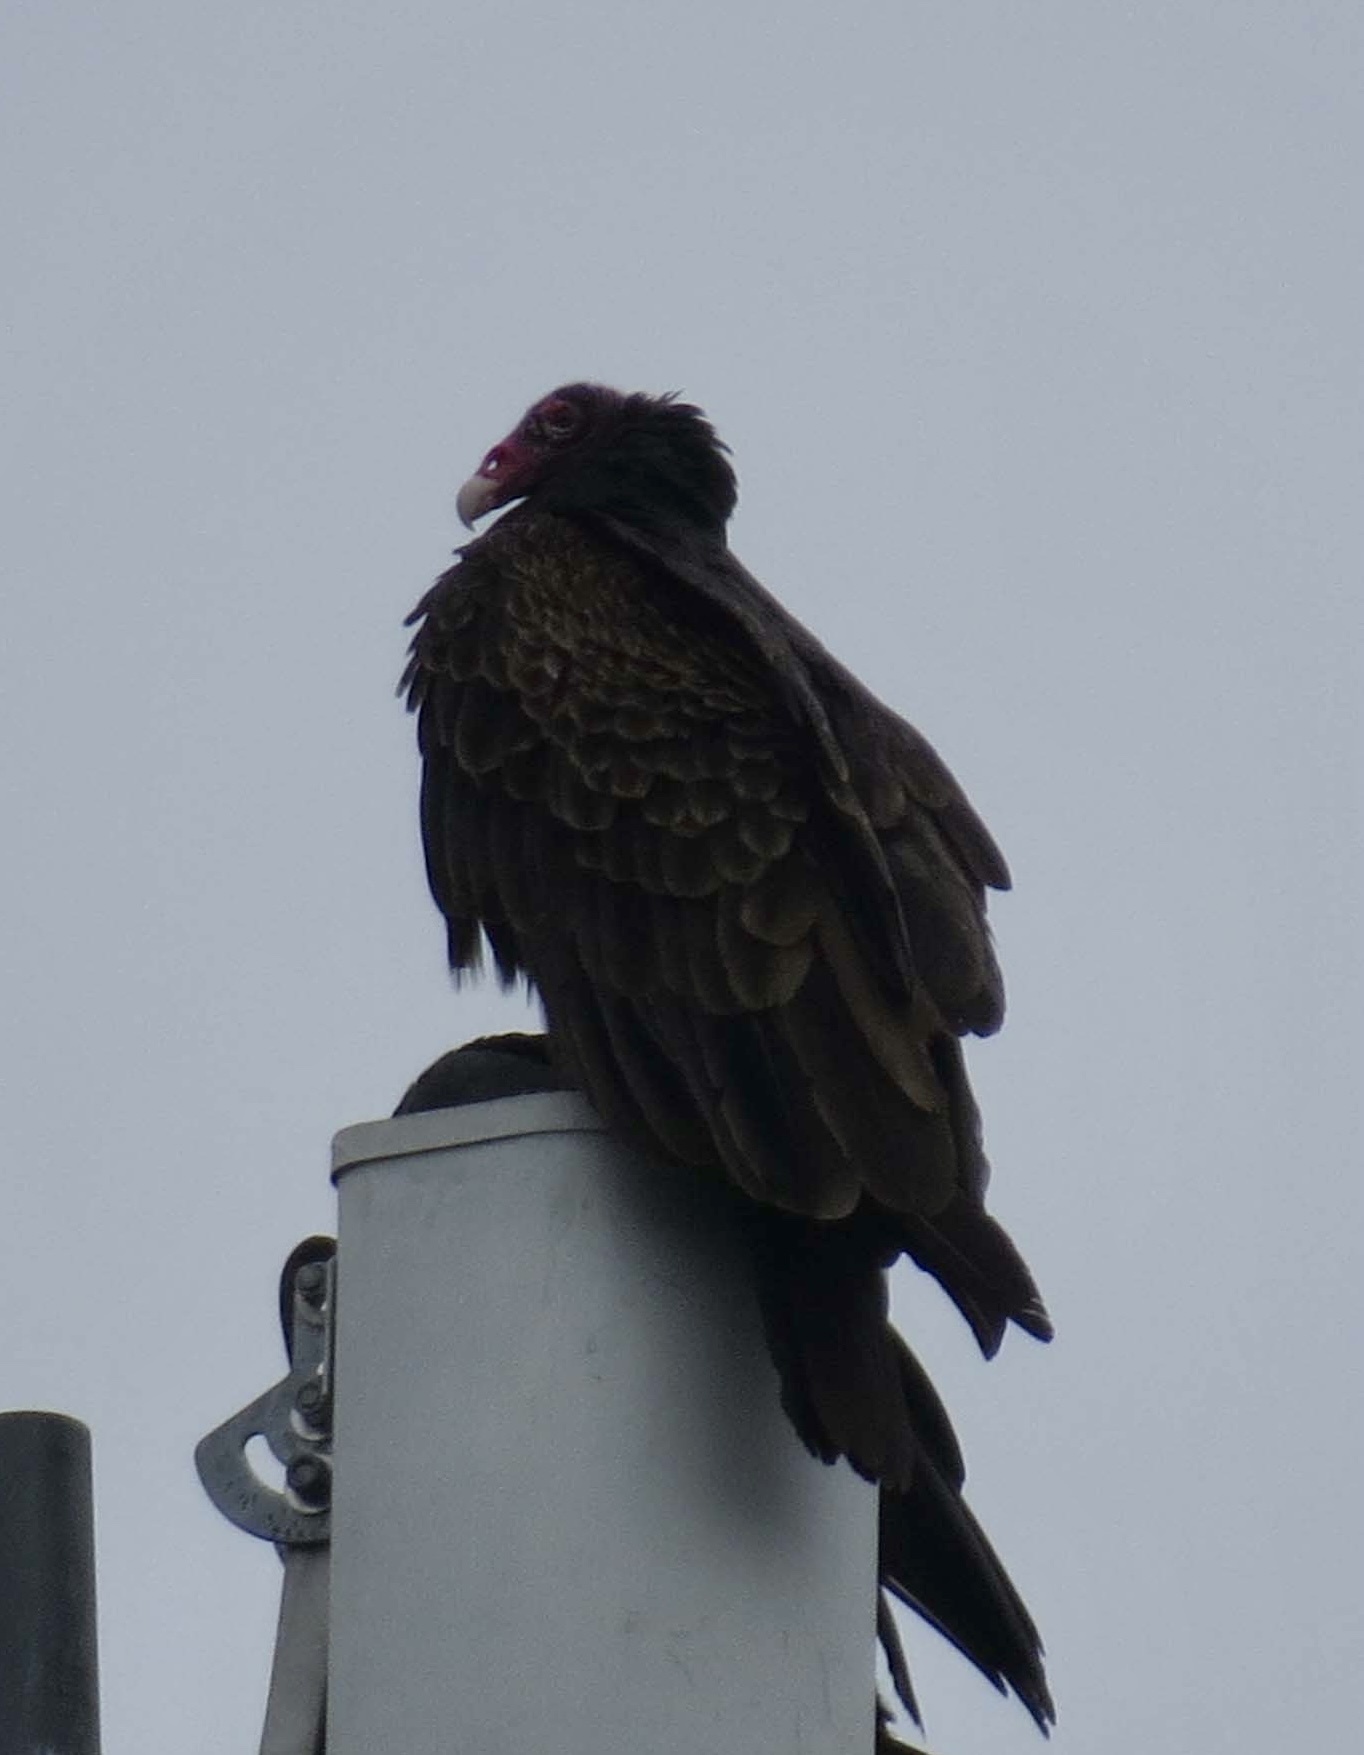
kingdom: Animalia
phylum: Chordata
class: Aves
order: Accipitriformes
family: Cathartidae
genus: Cathartes
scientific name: Cathartes aura
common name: Turkey vulture
